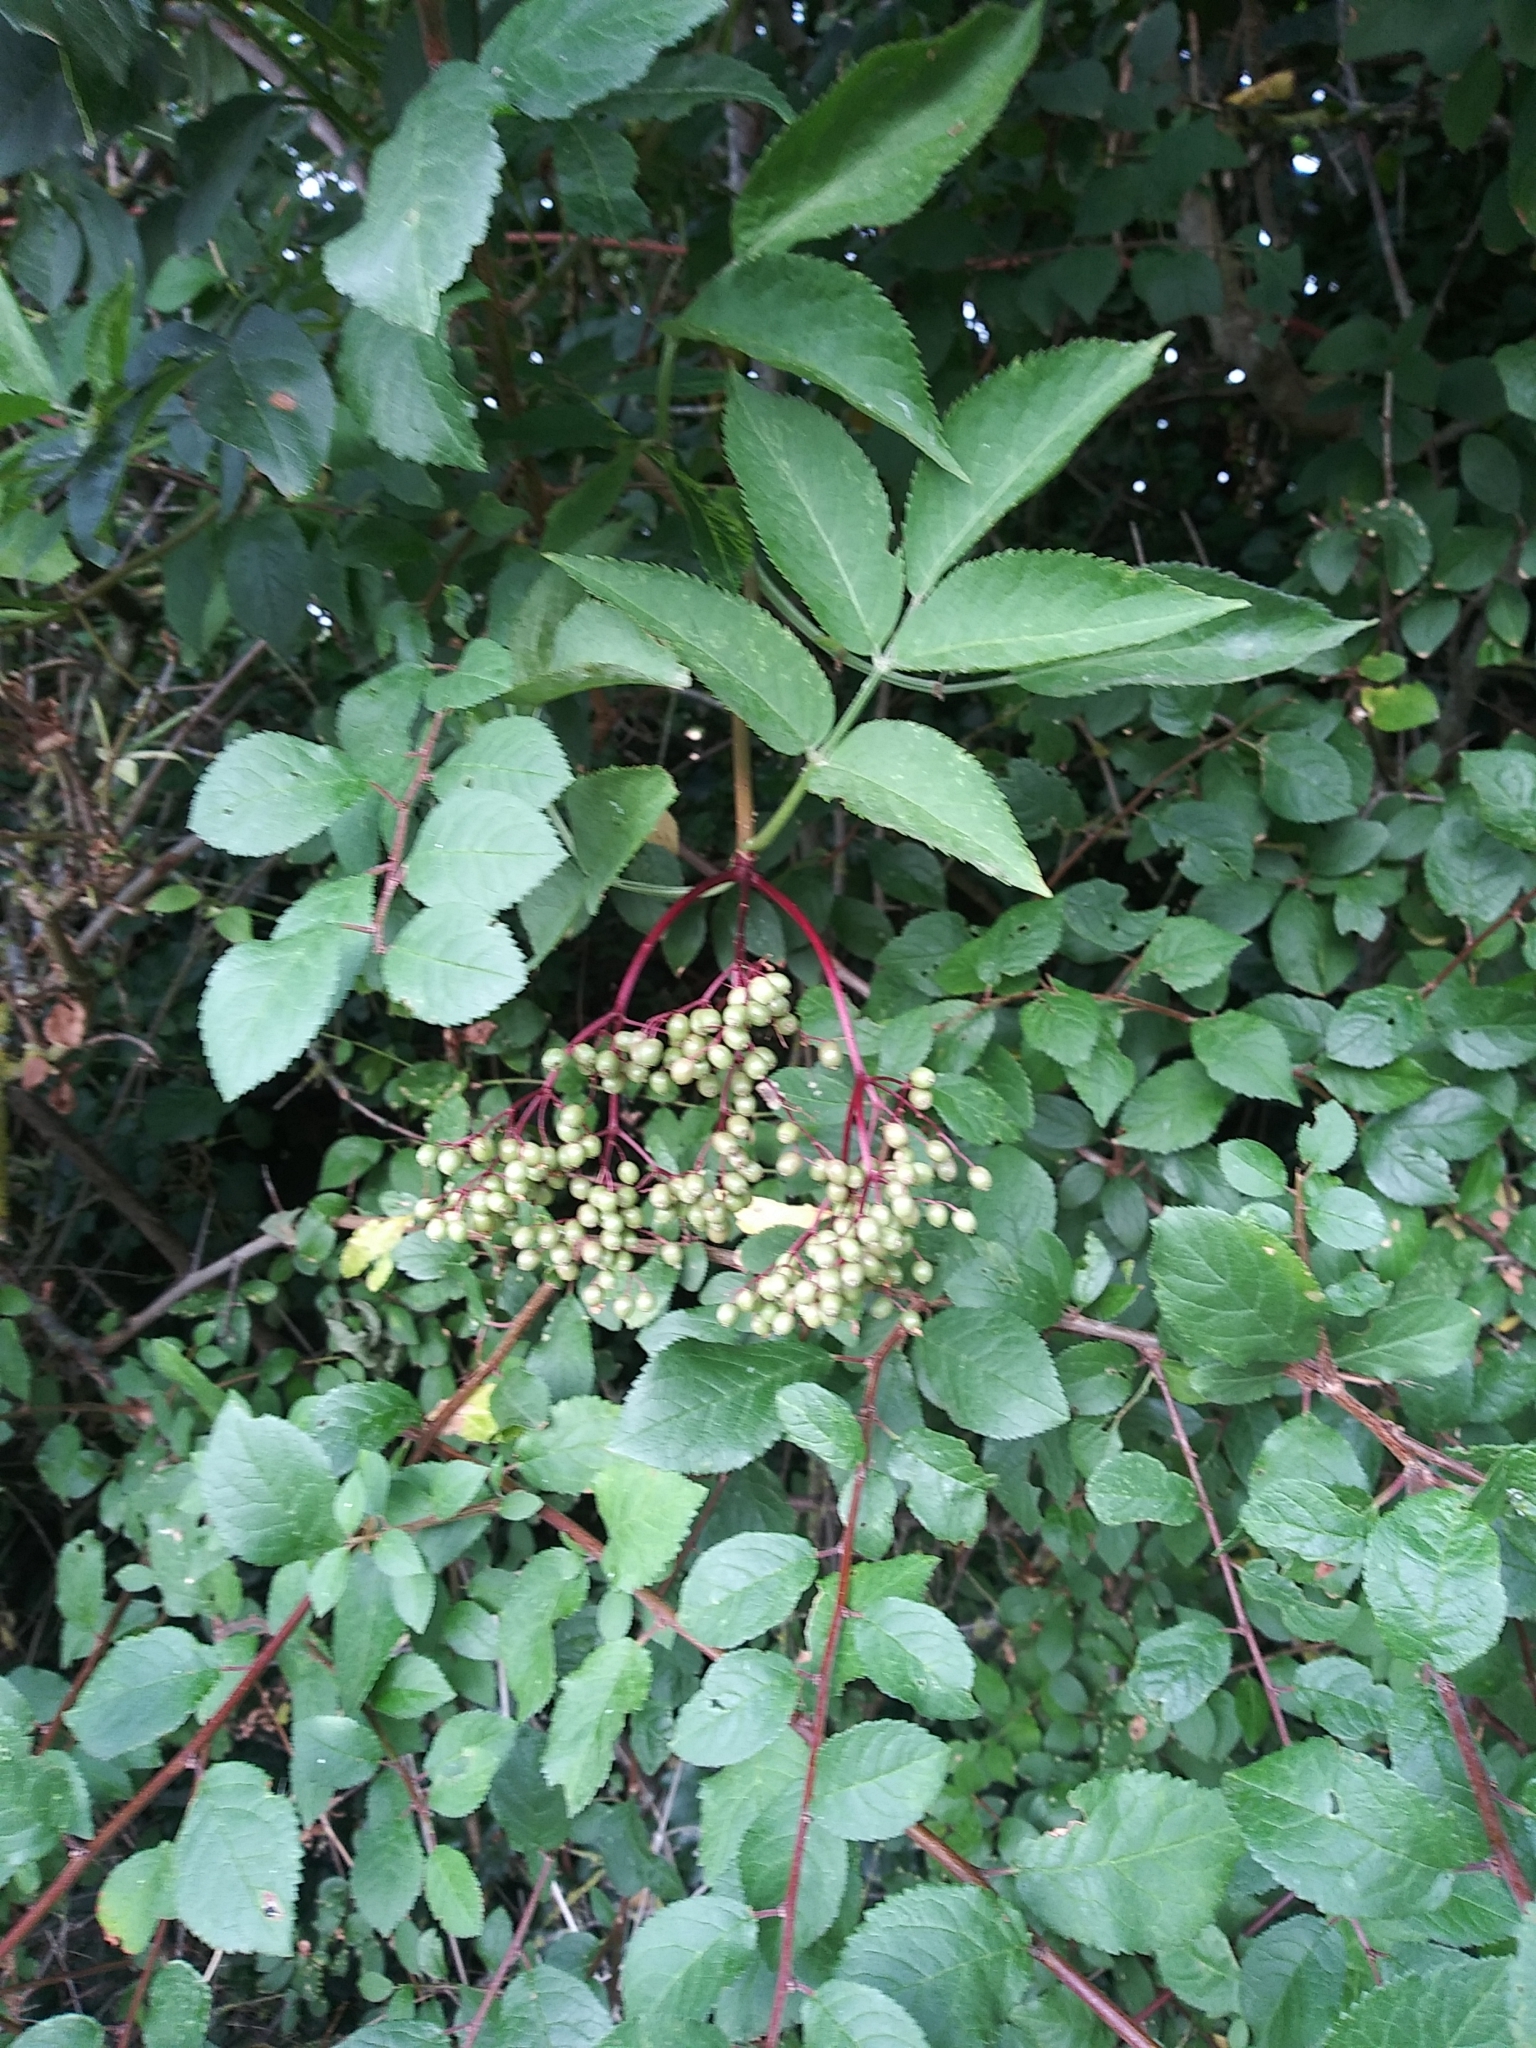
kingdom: Plantae
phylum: Tracheophyta
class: Magnoliopsida
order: Dipsacales
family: Viburnaceae
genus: Sambucus
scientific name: Sambucus nigra
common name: Elder
